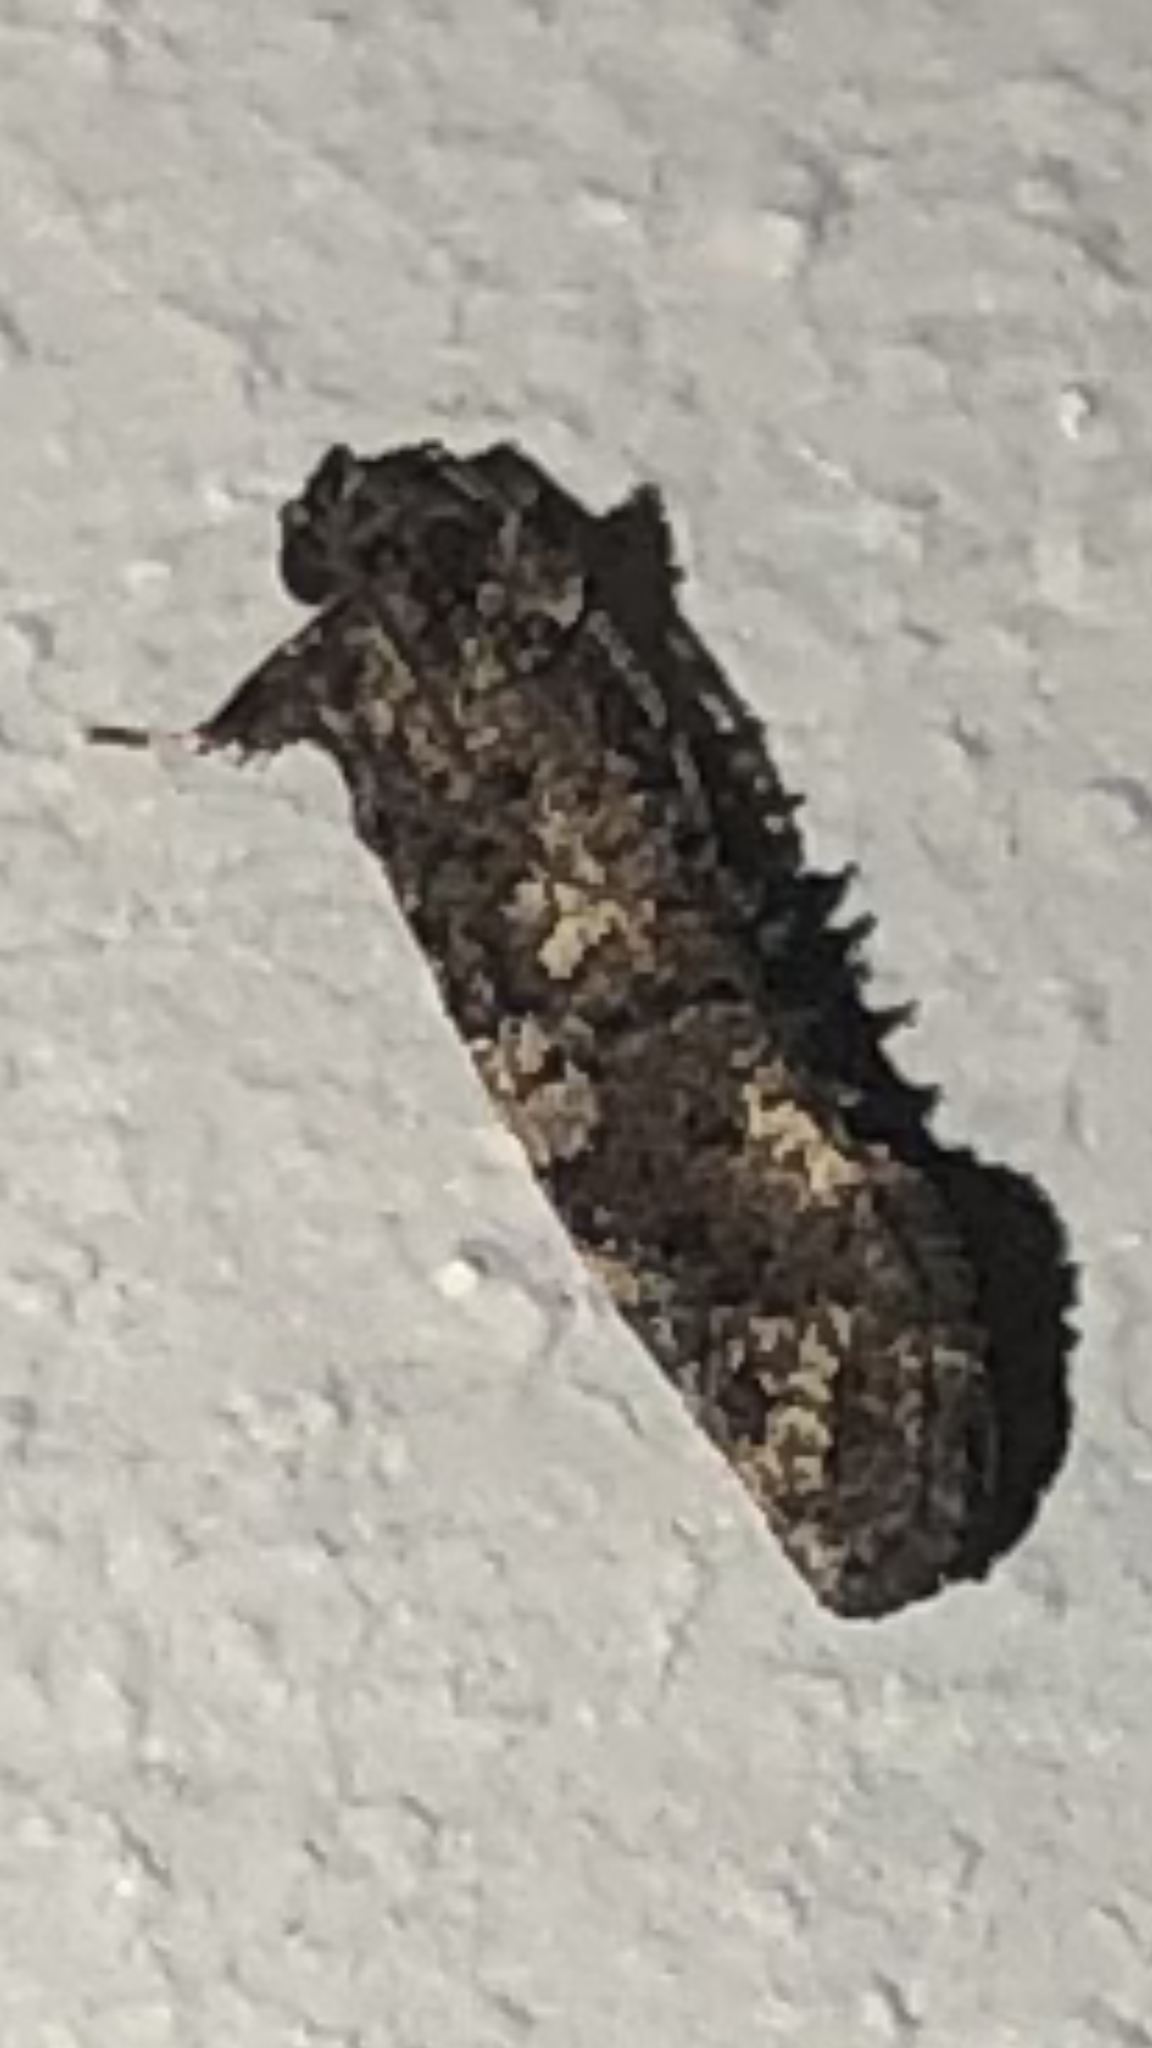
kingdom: Animalia
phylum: Arthropoda
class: Insecta
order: Lepidoptera
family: Tineidae
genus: Acrolophus
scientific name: Acrolophus cressoni
